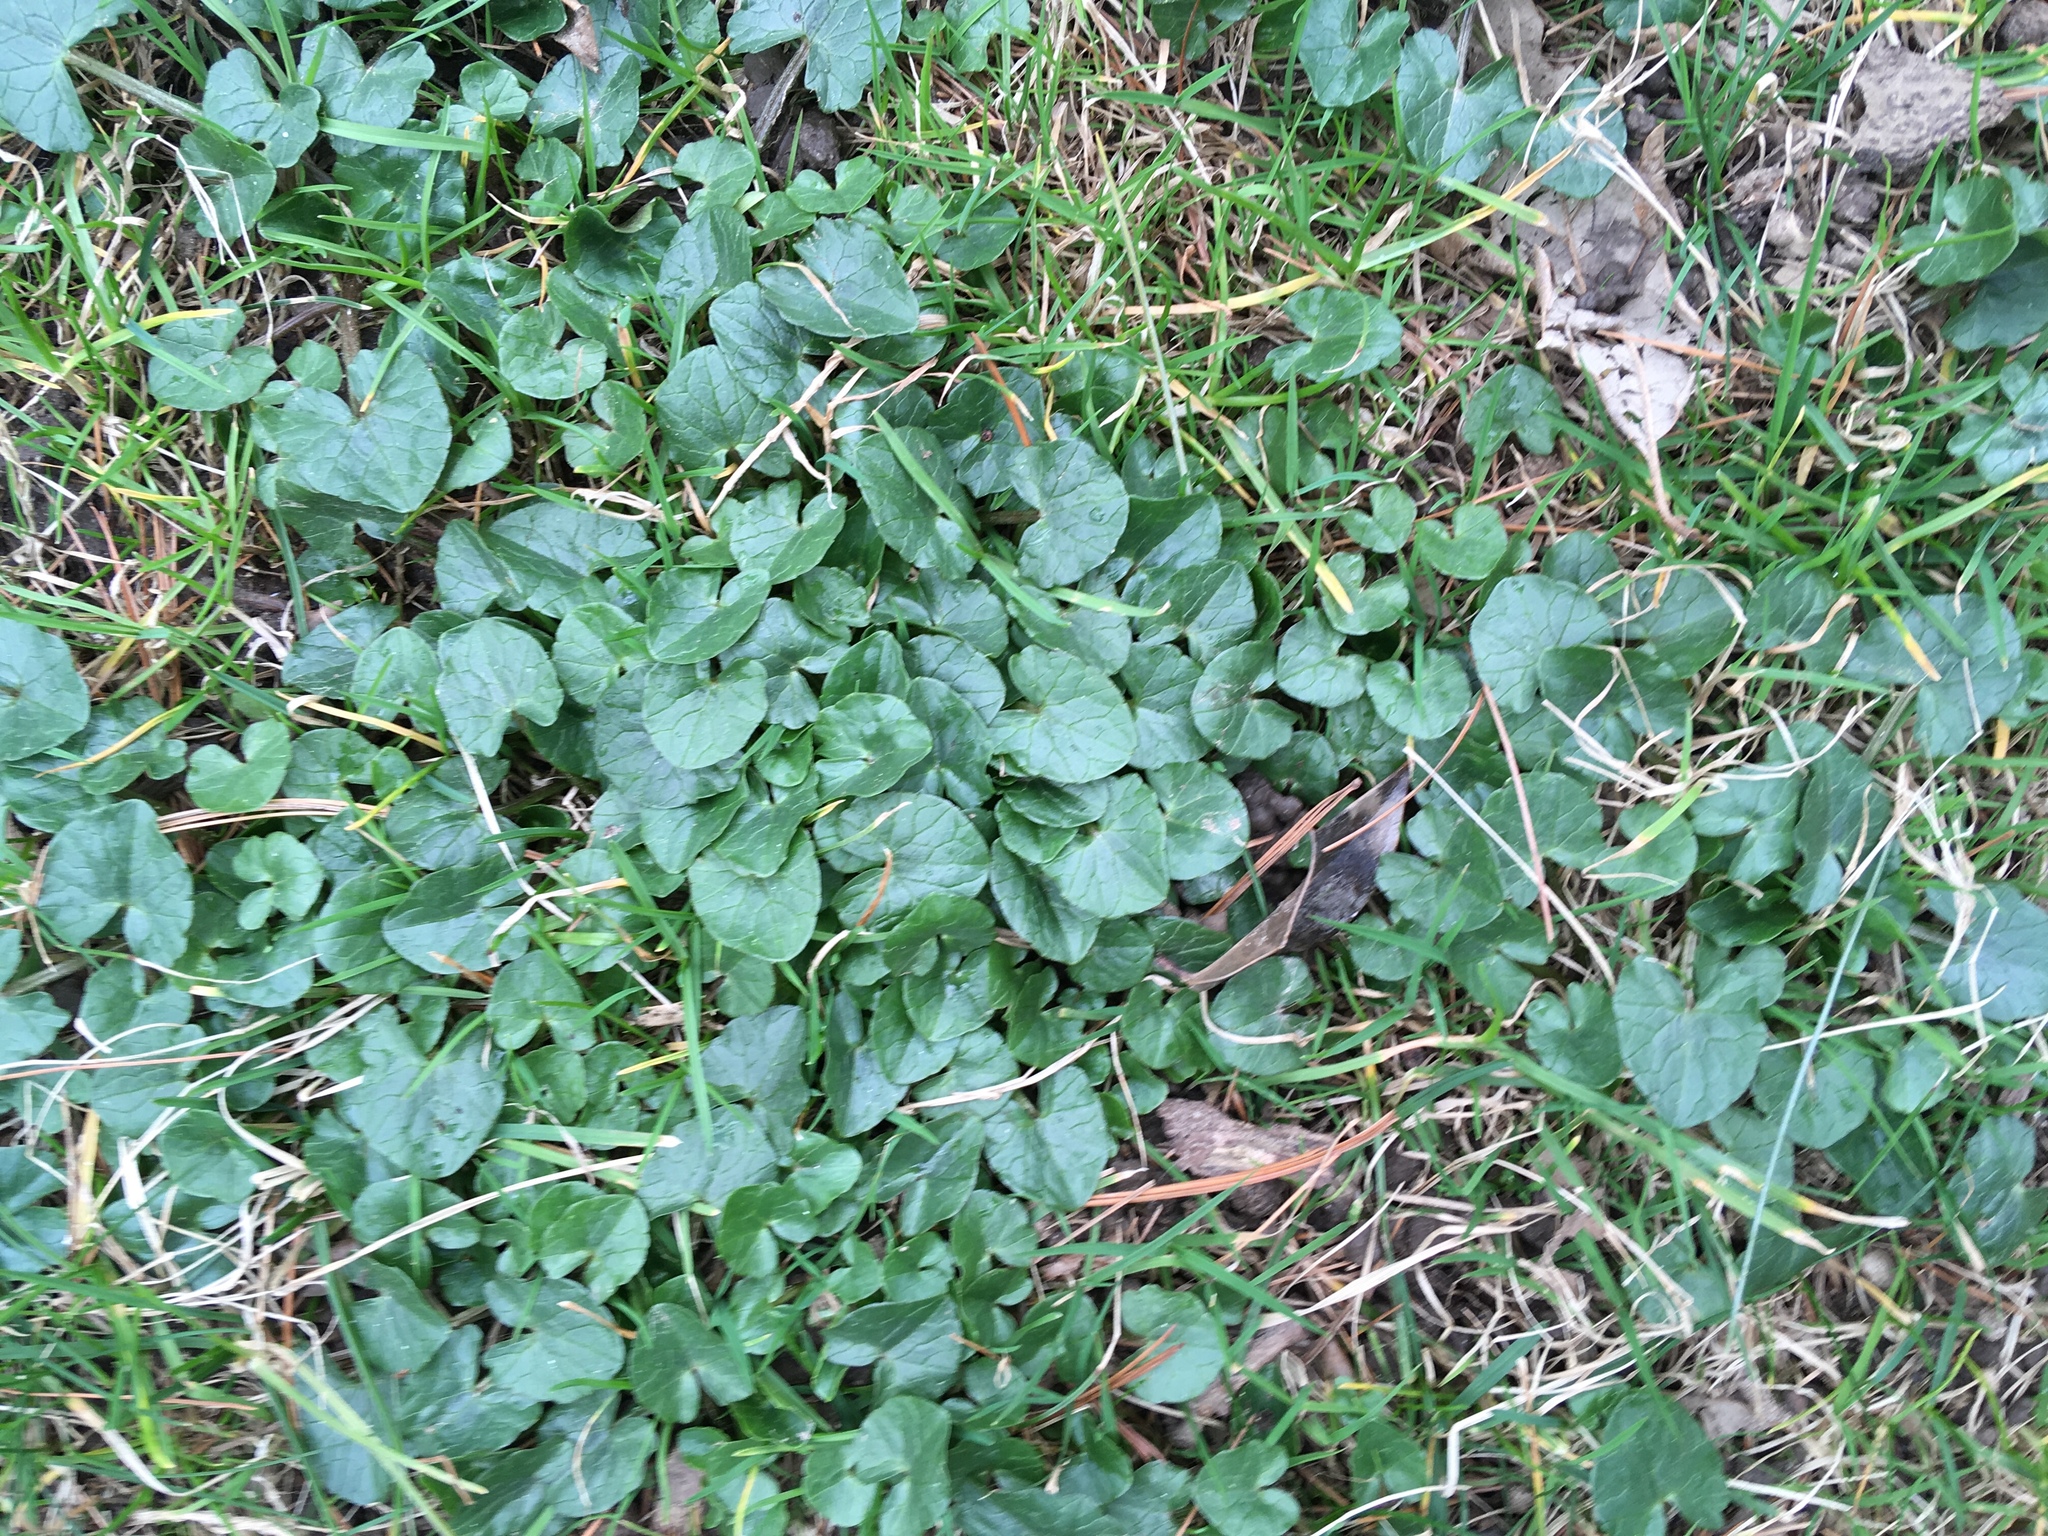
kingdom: Plantae
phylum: Tracheophyta
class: Magnoliopsida
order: Ranunculales
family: Ranunculaceae
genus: Ficaria
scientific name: Ficaria verna
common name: Lesser celandine
